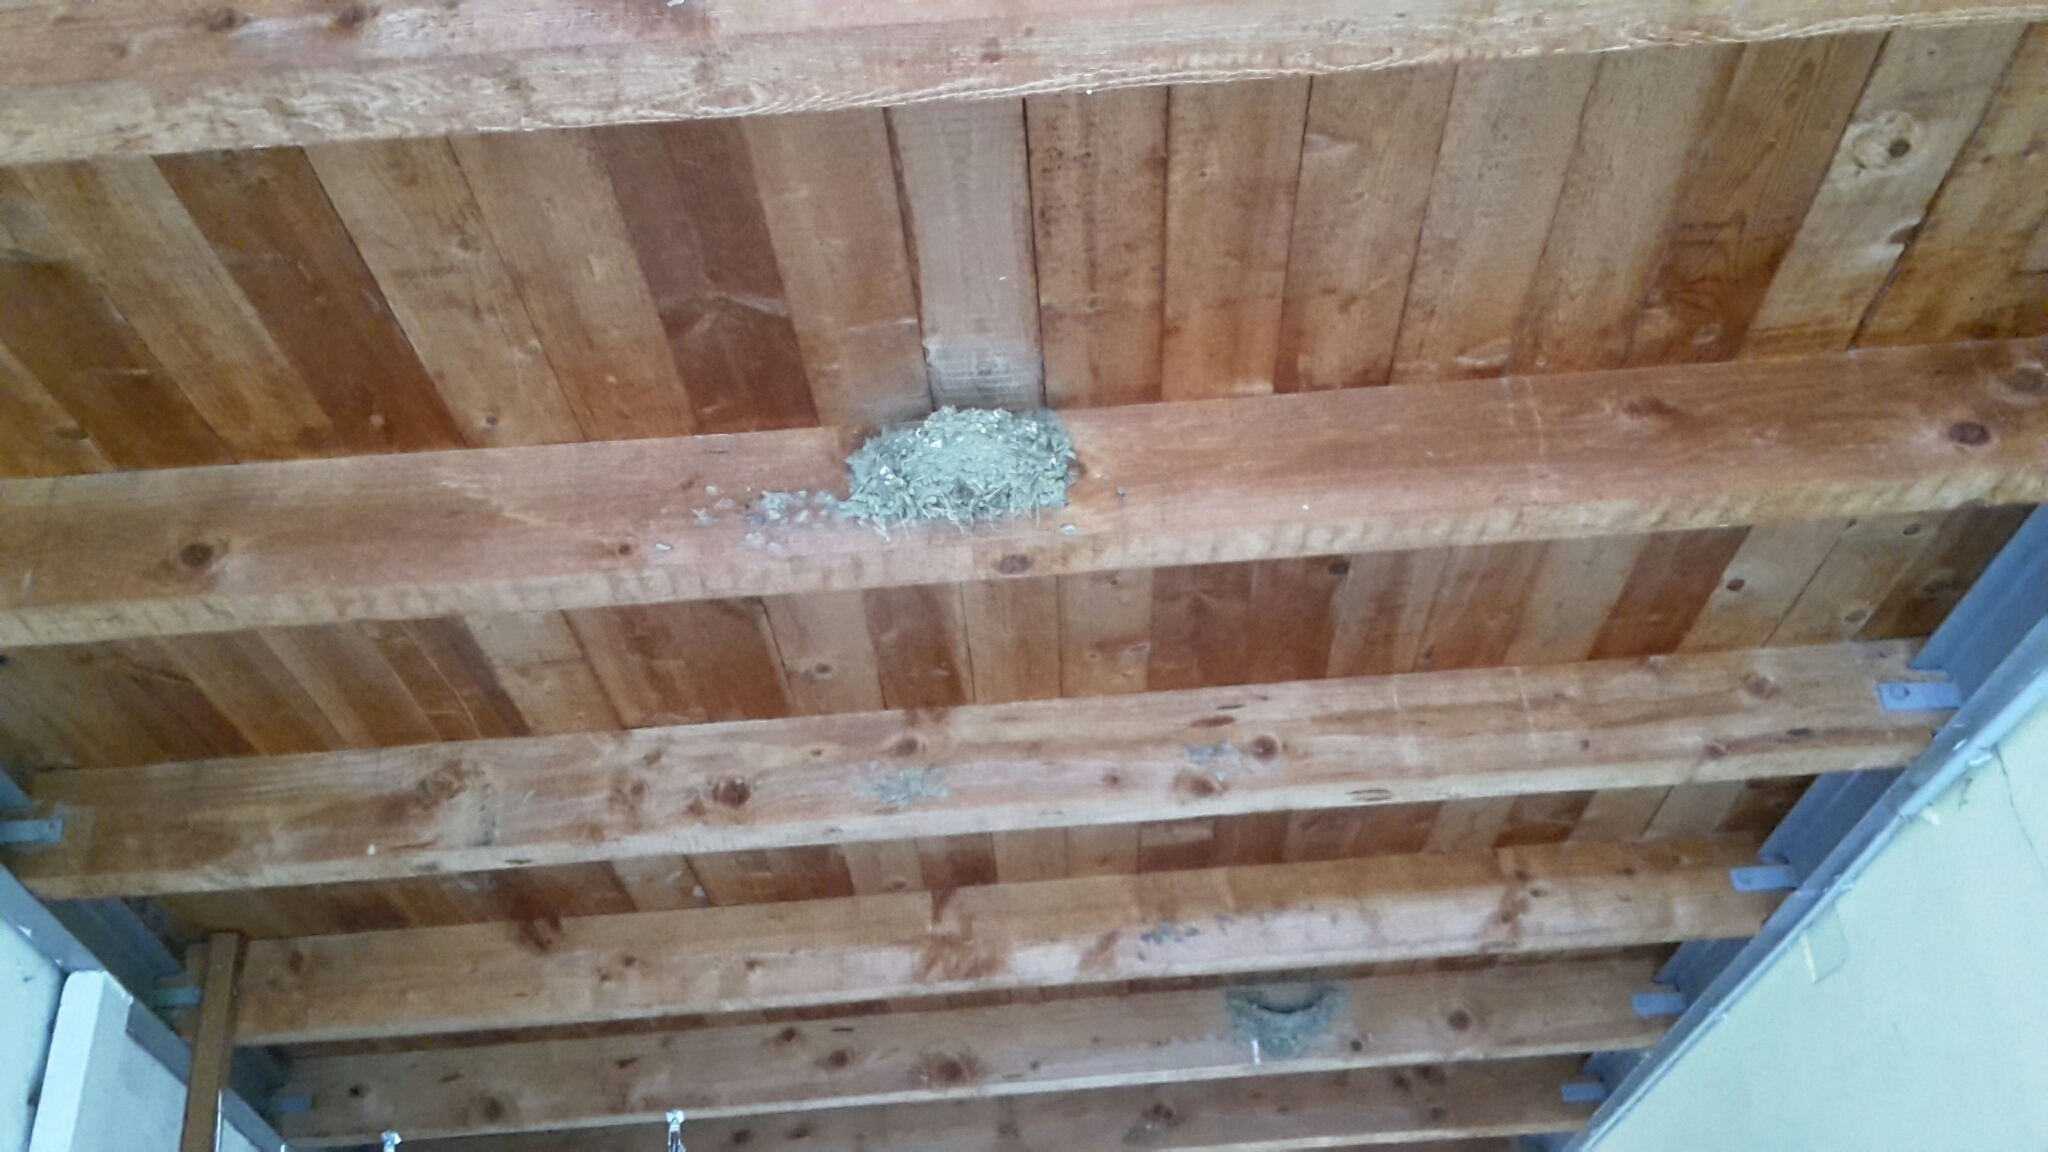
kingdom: Animalia
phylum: Chordata
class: Aves
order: Passeriformes
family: Hirundinidae
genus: Hirundo
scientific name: Hirundo rustica
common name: Barn swallow
